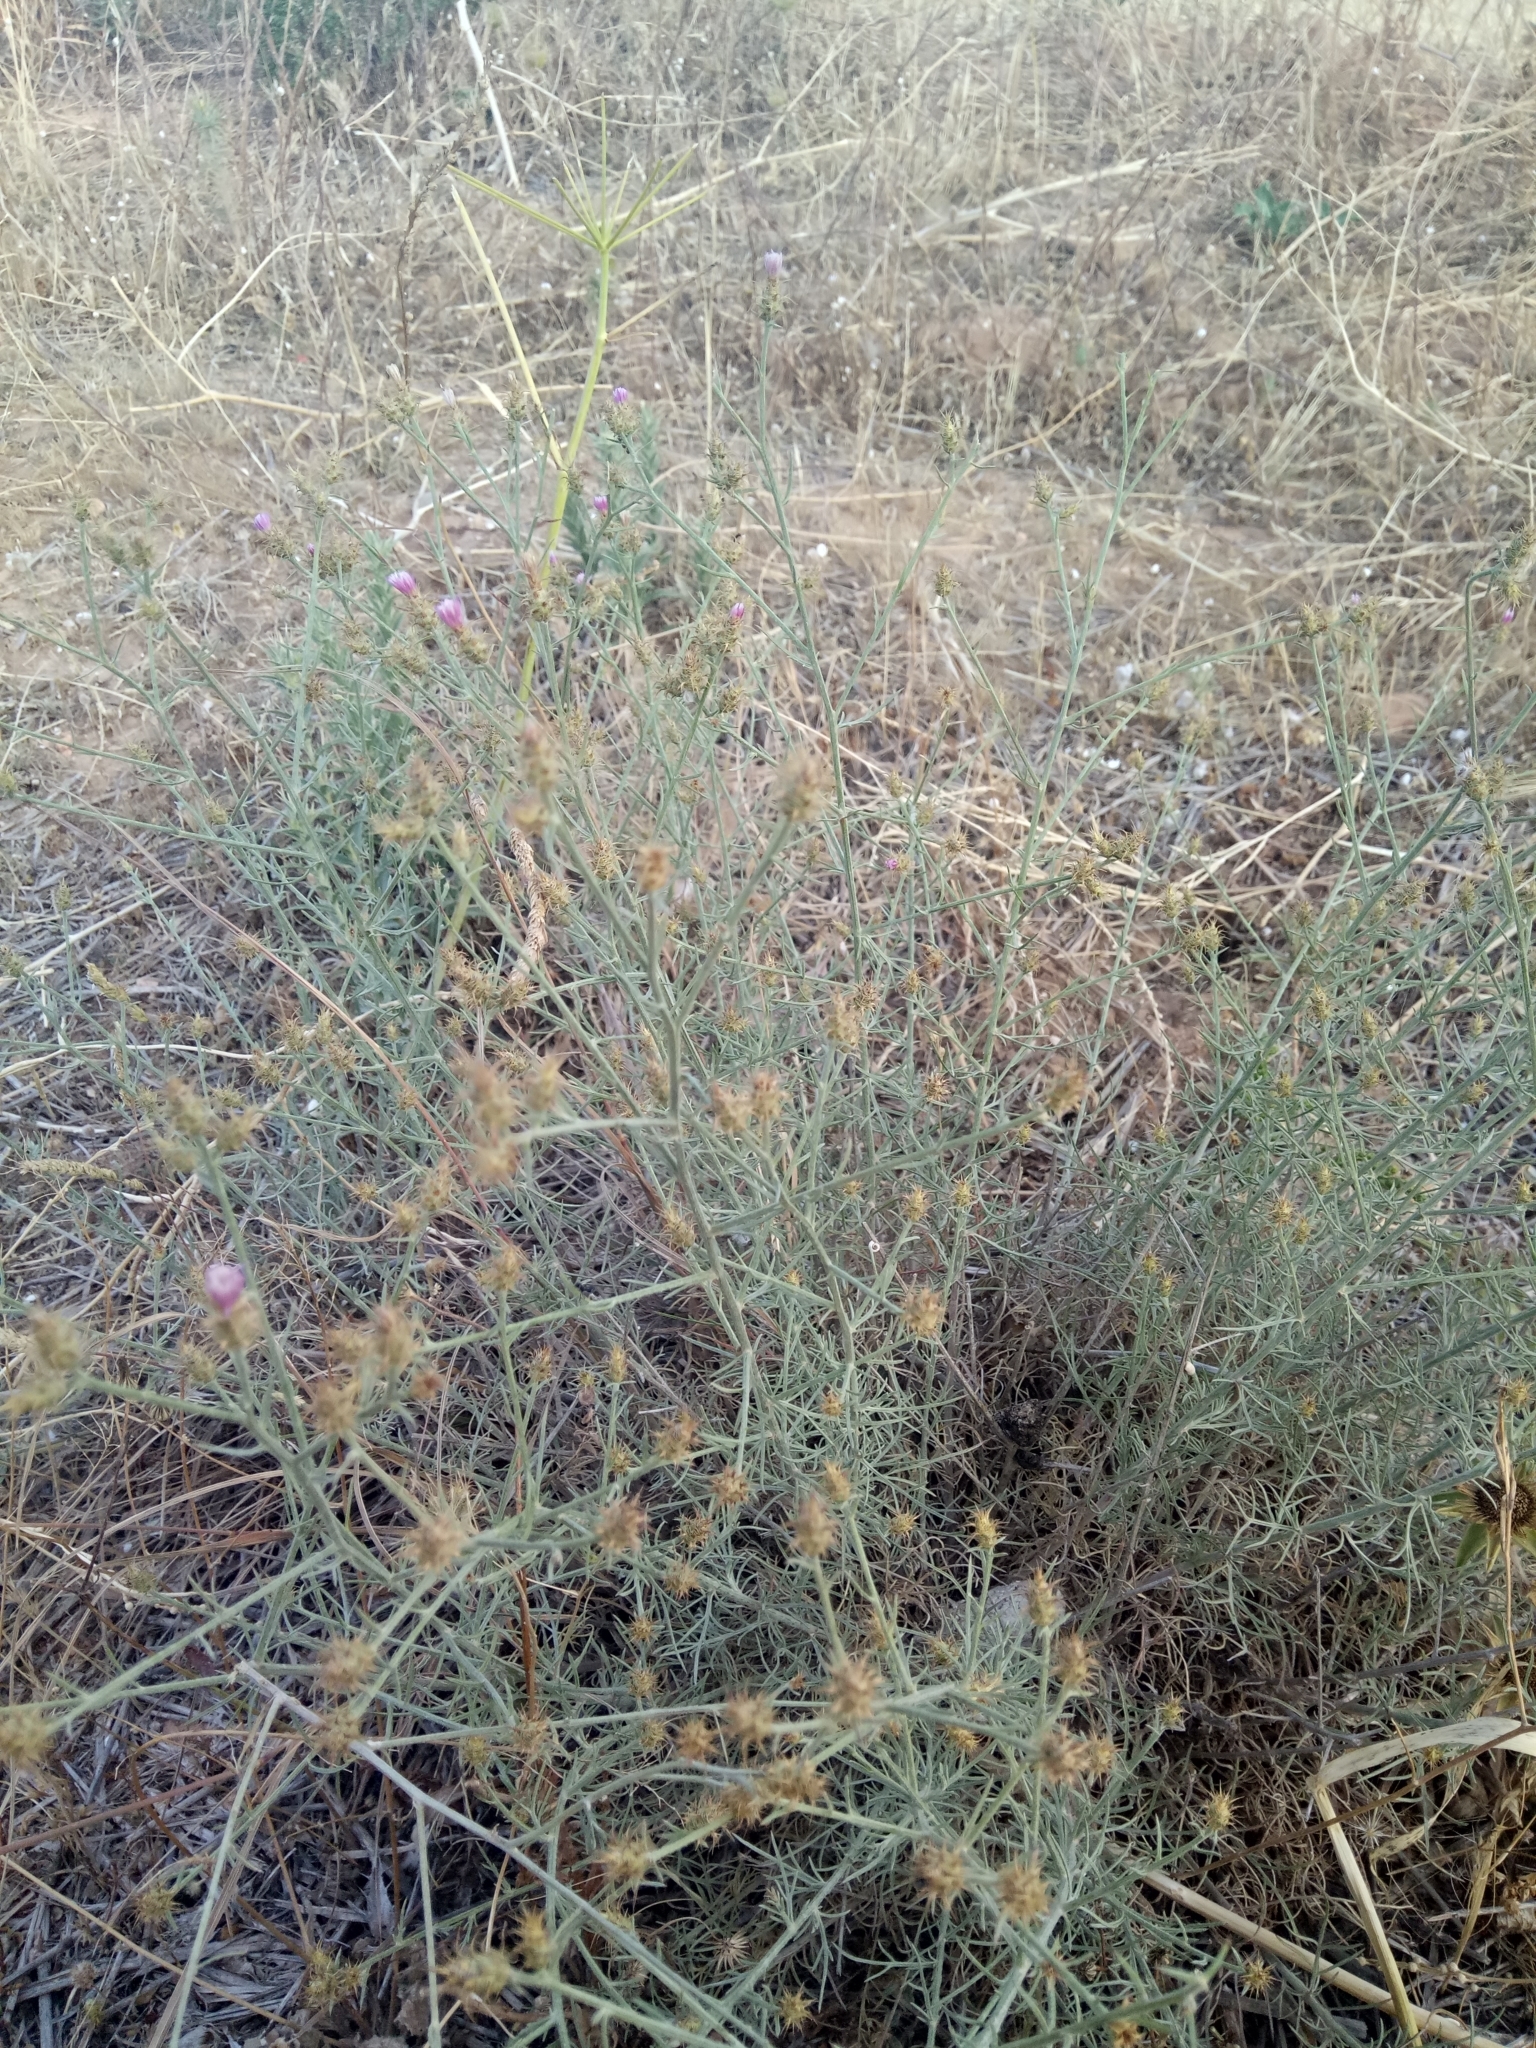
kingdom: Plantae
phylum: Tracheophyta
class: Magnoliopsida
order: Asterales
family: Asteraceae
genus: Centaurea
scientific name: Centaurea parviflora
